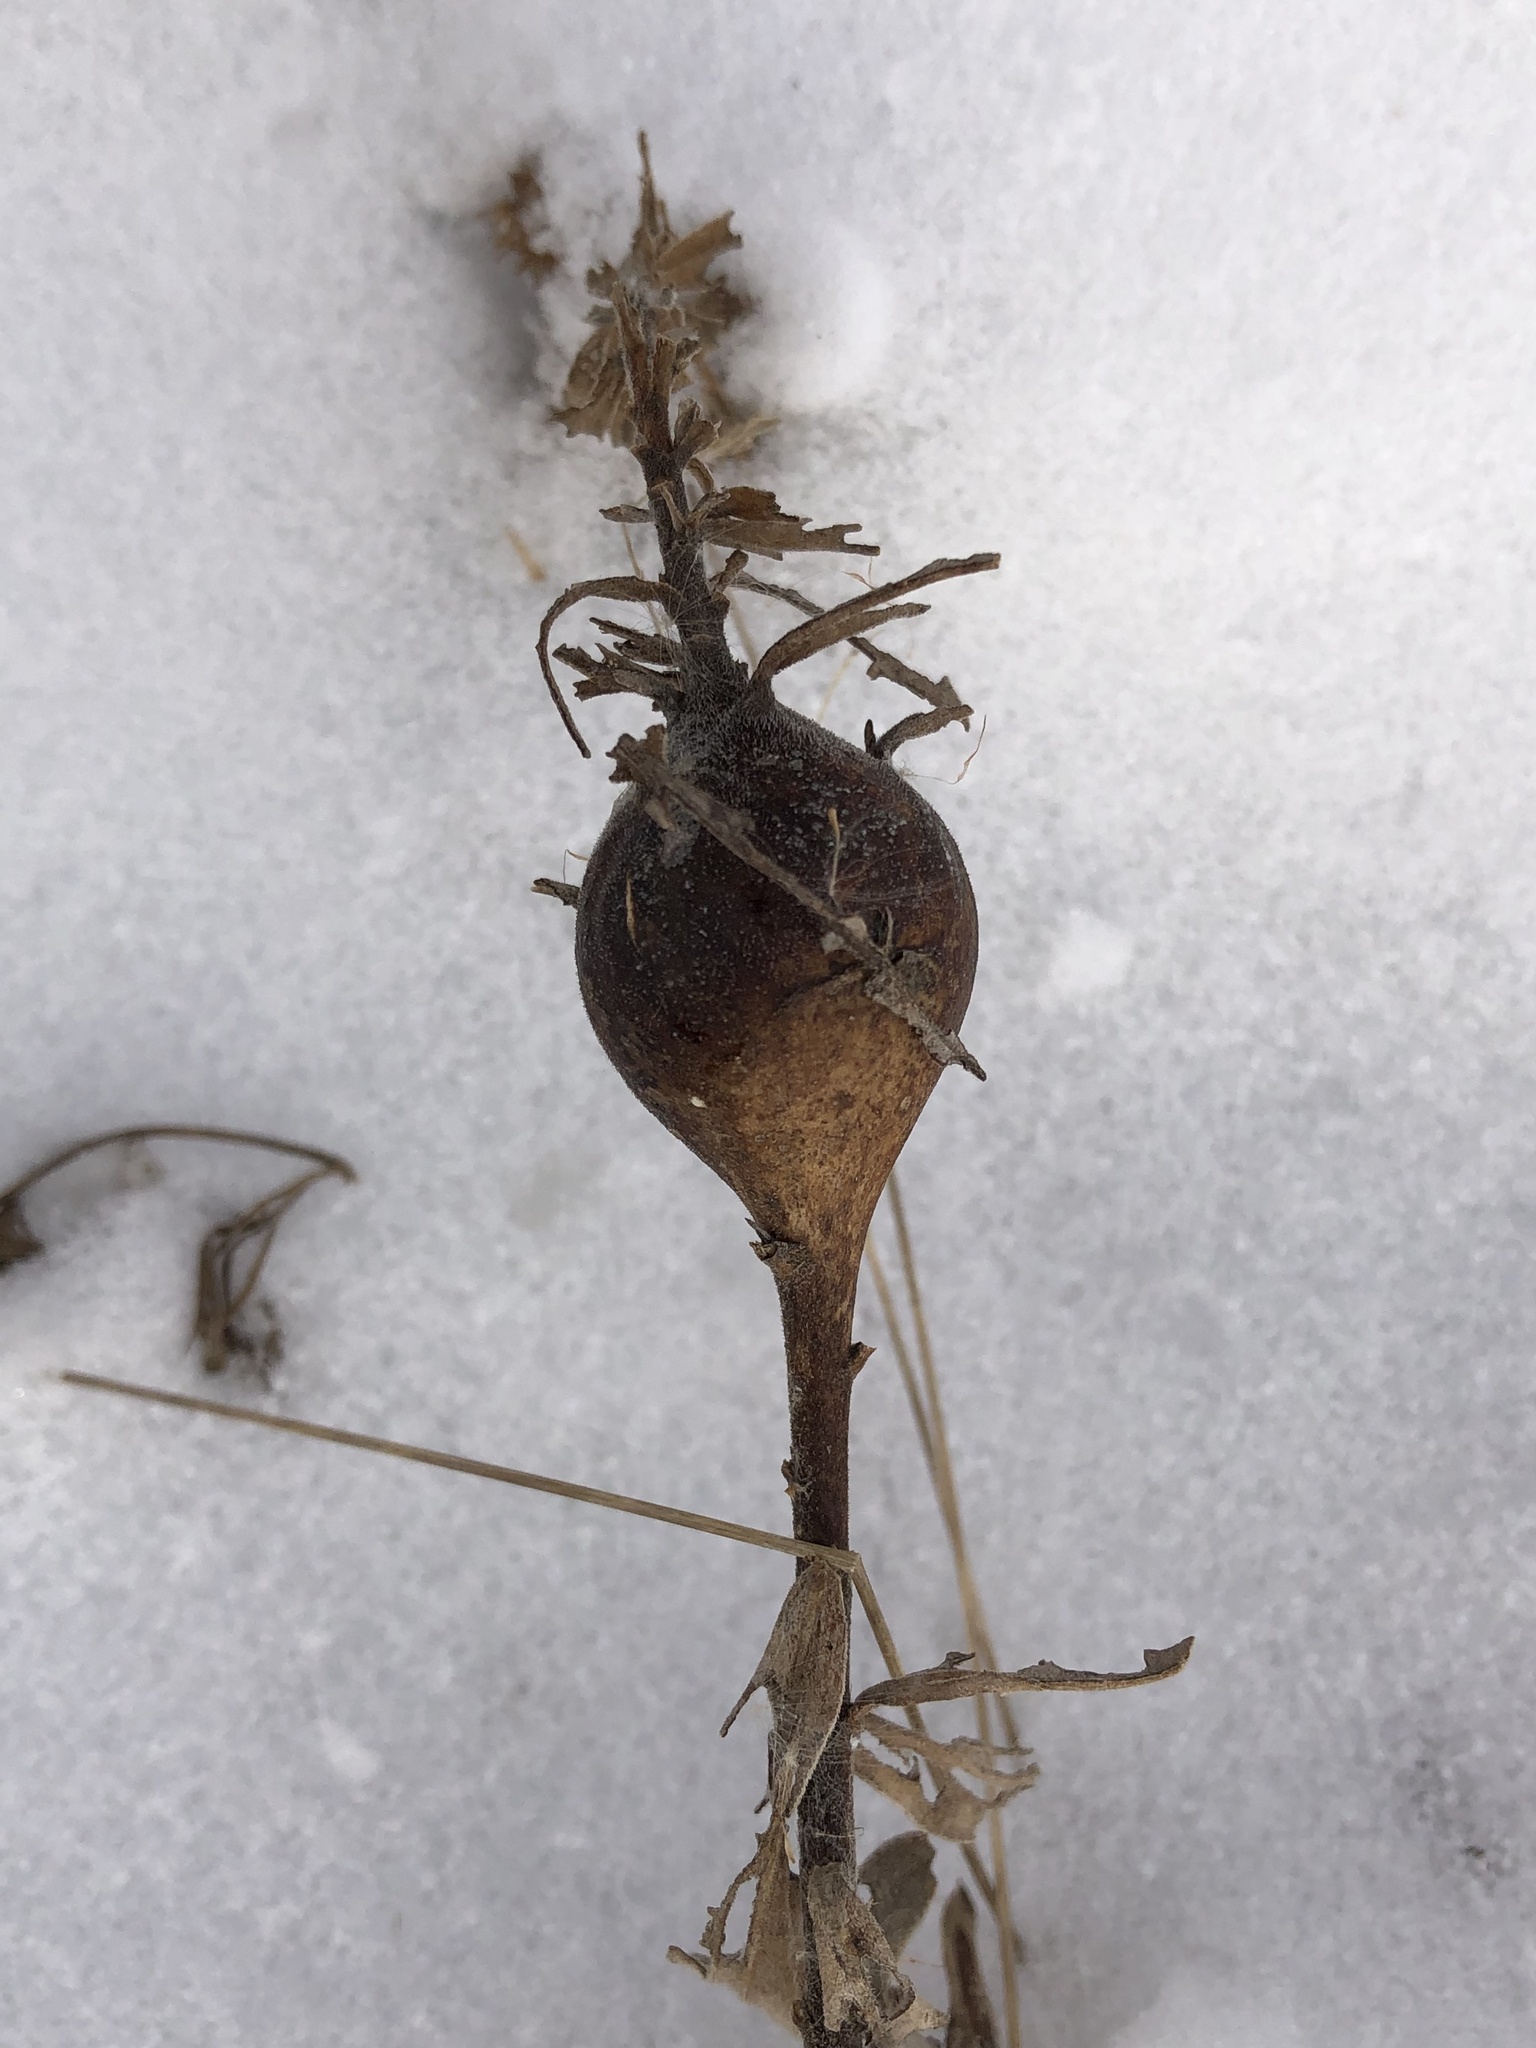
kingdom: Animalia
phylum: Arthropoda
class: Insecta
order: Diptera
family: Tephritidae
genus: Eurosta
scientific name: Eurosta solidaginis
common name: Goldenrod gall fly
